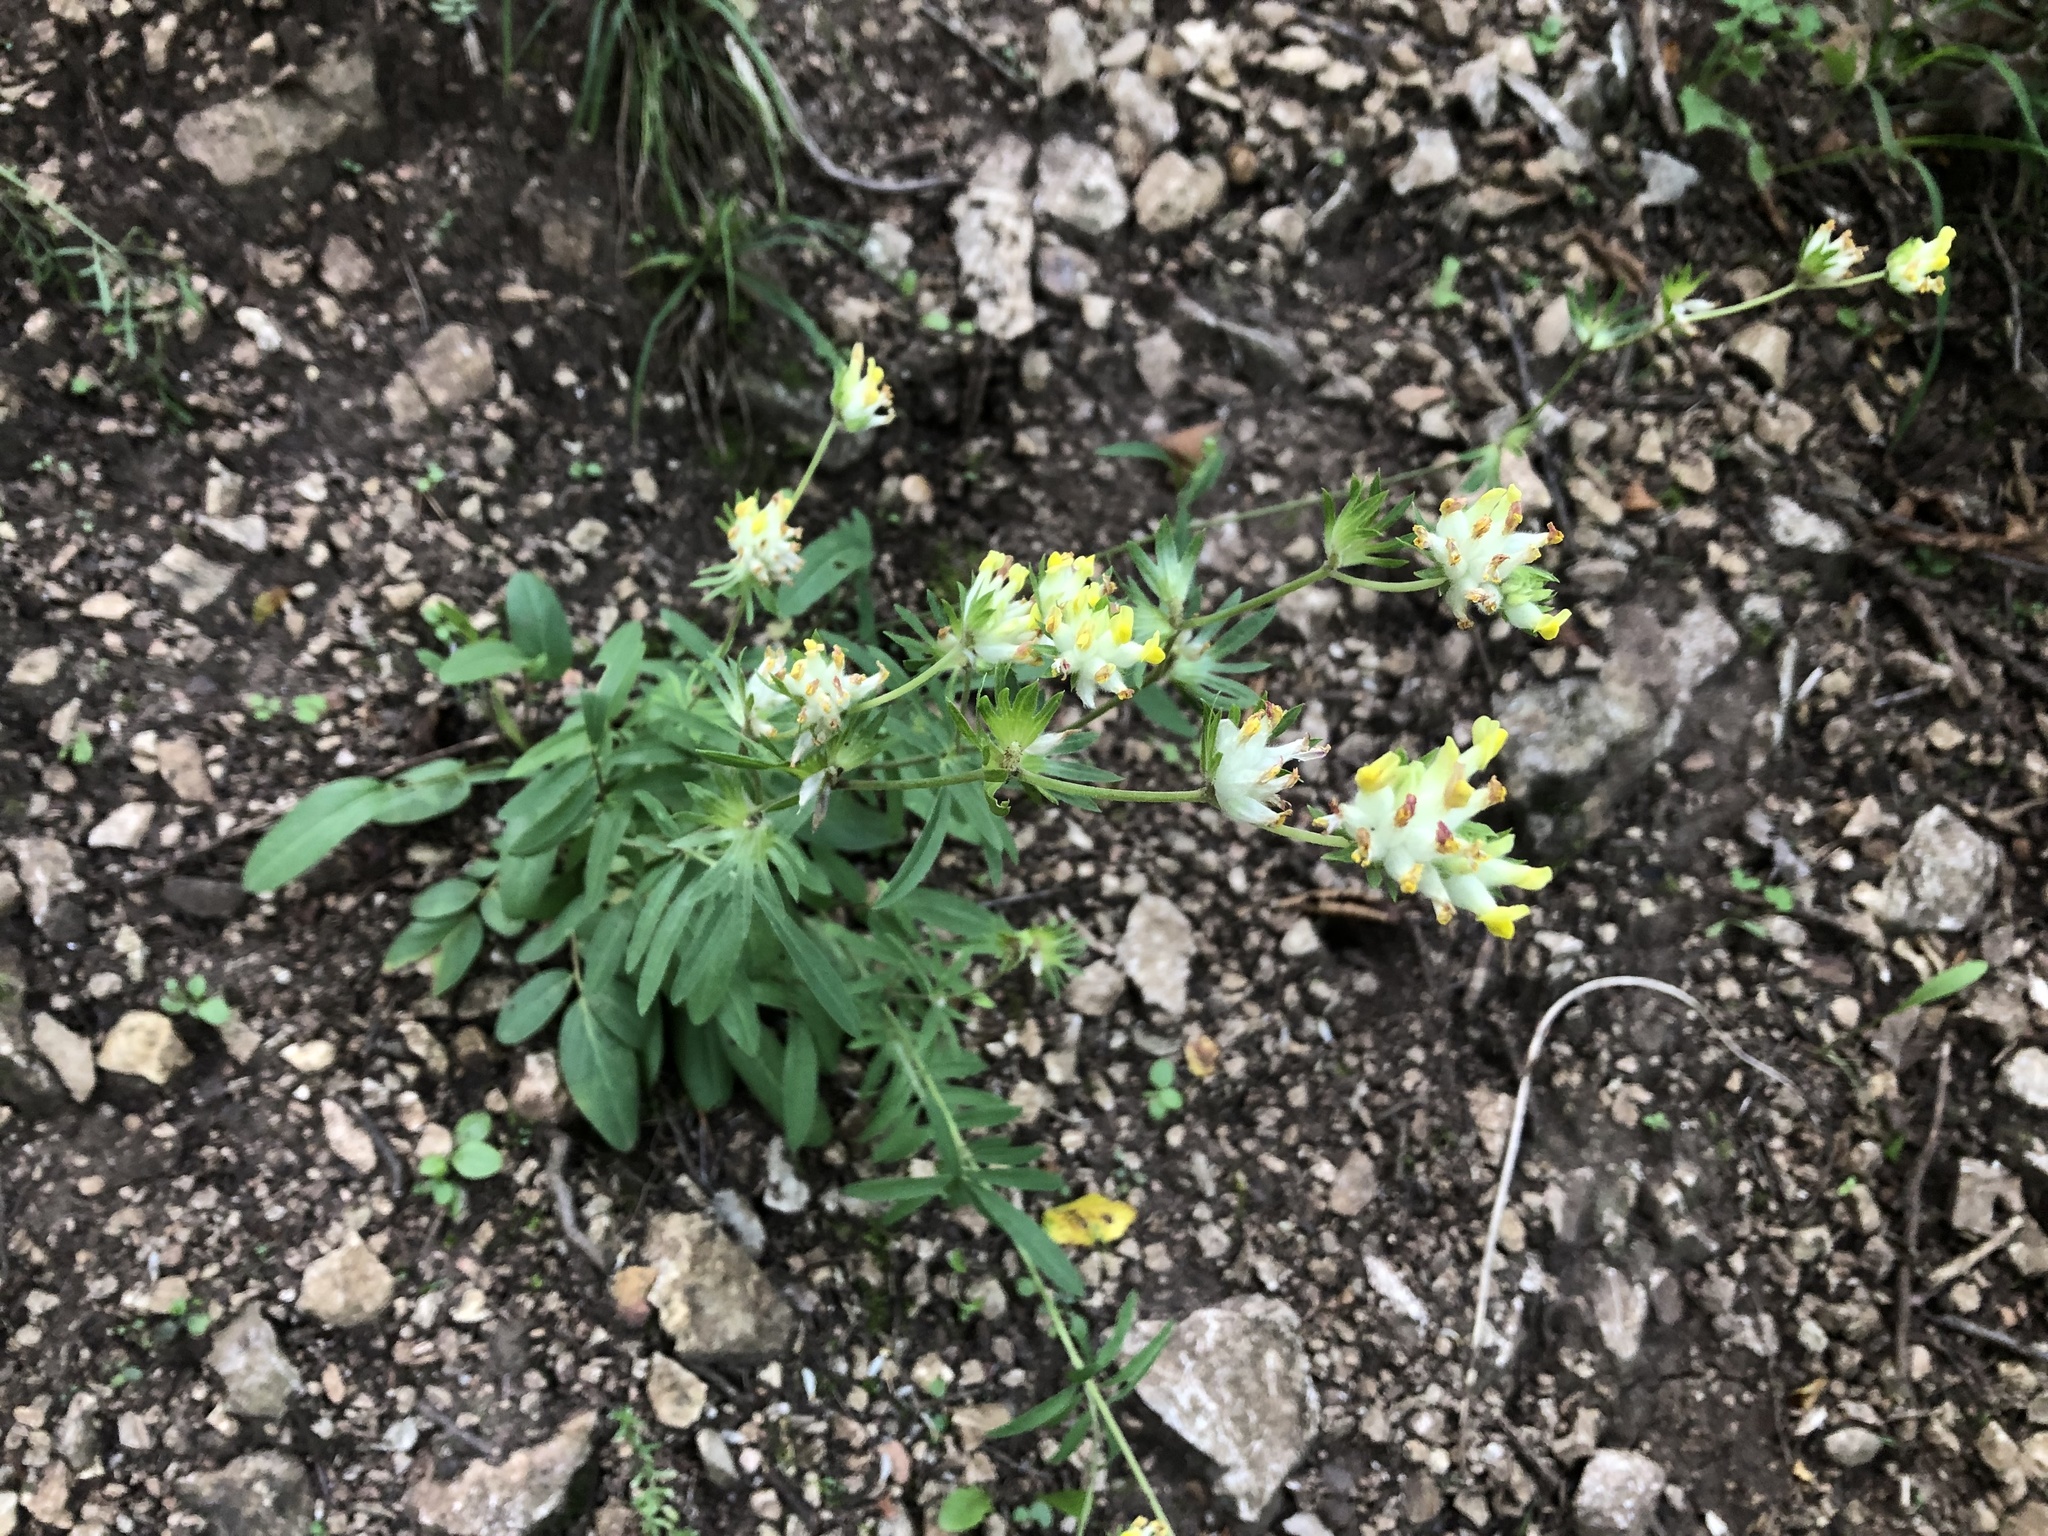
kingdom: Plantae
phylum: Tracheophyta
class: Magnoliopsida
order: Fabales
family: Fabaceae
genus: Anthyllis
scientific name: Anthyllis vulneraria
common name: Kidney vetch
